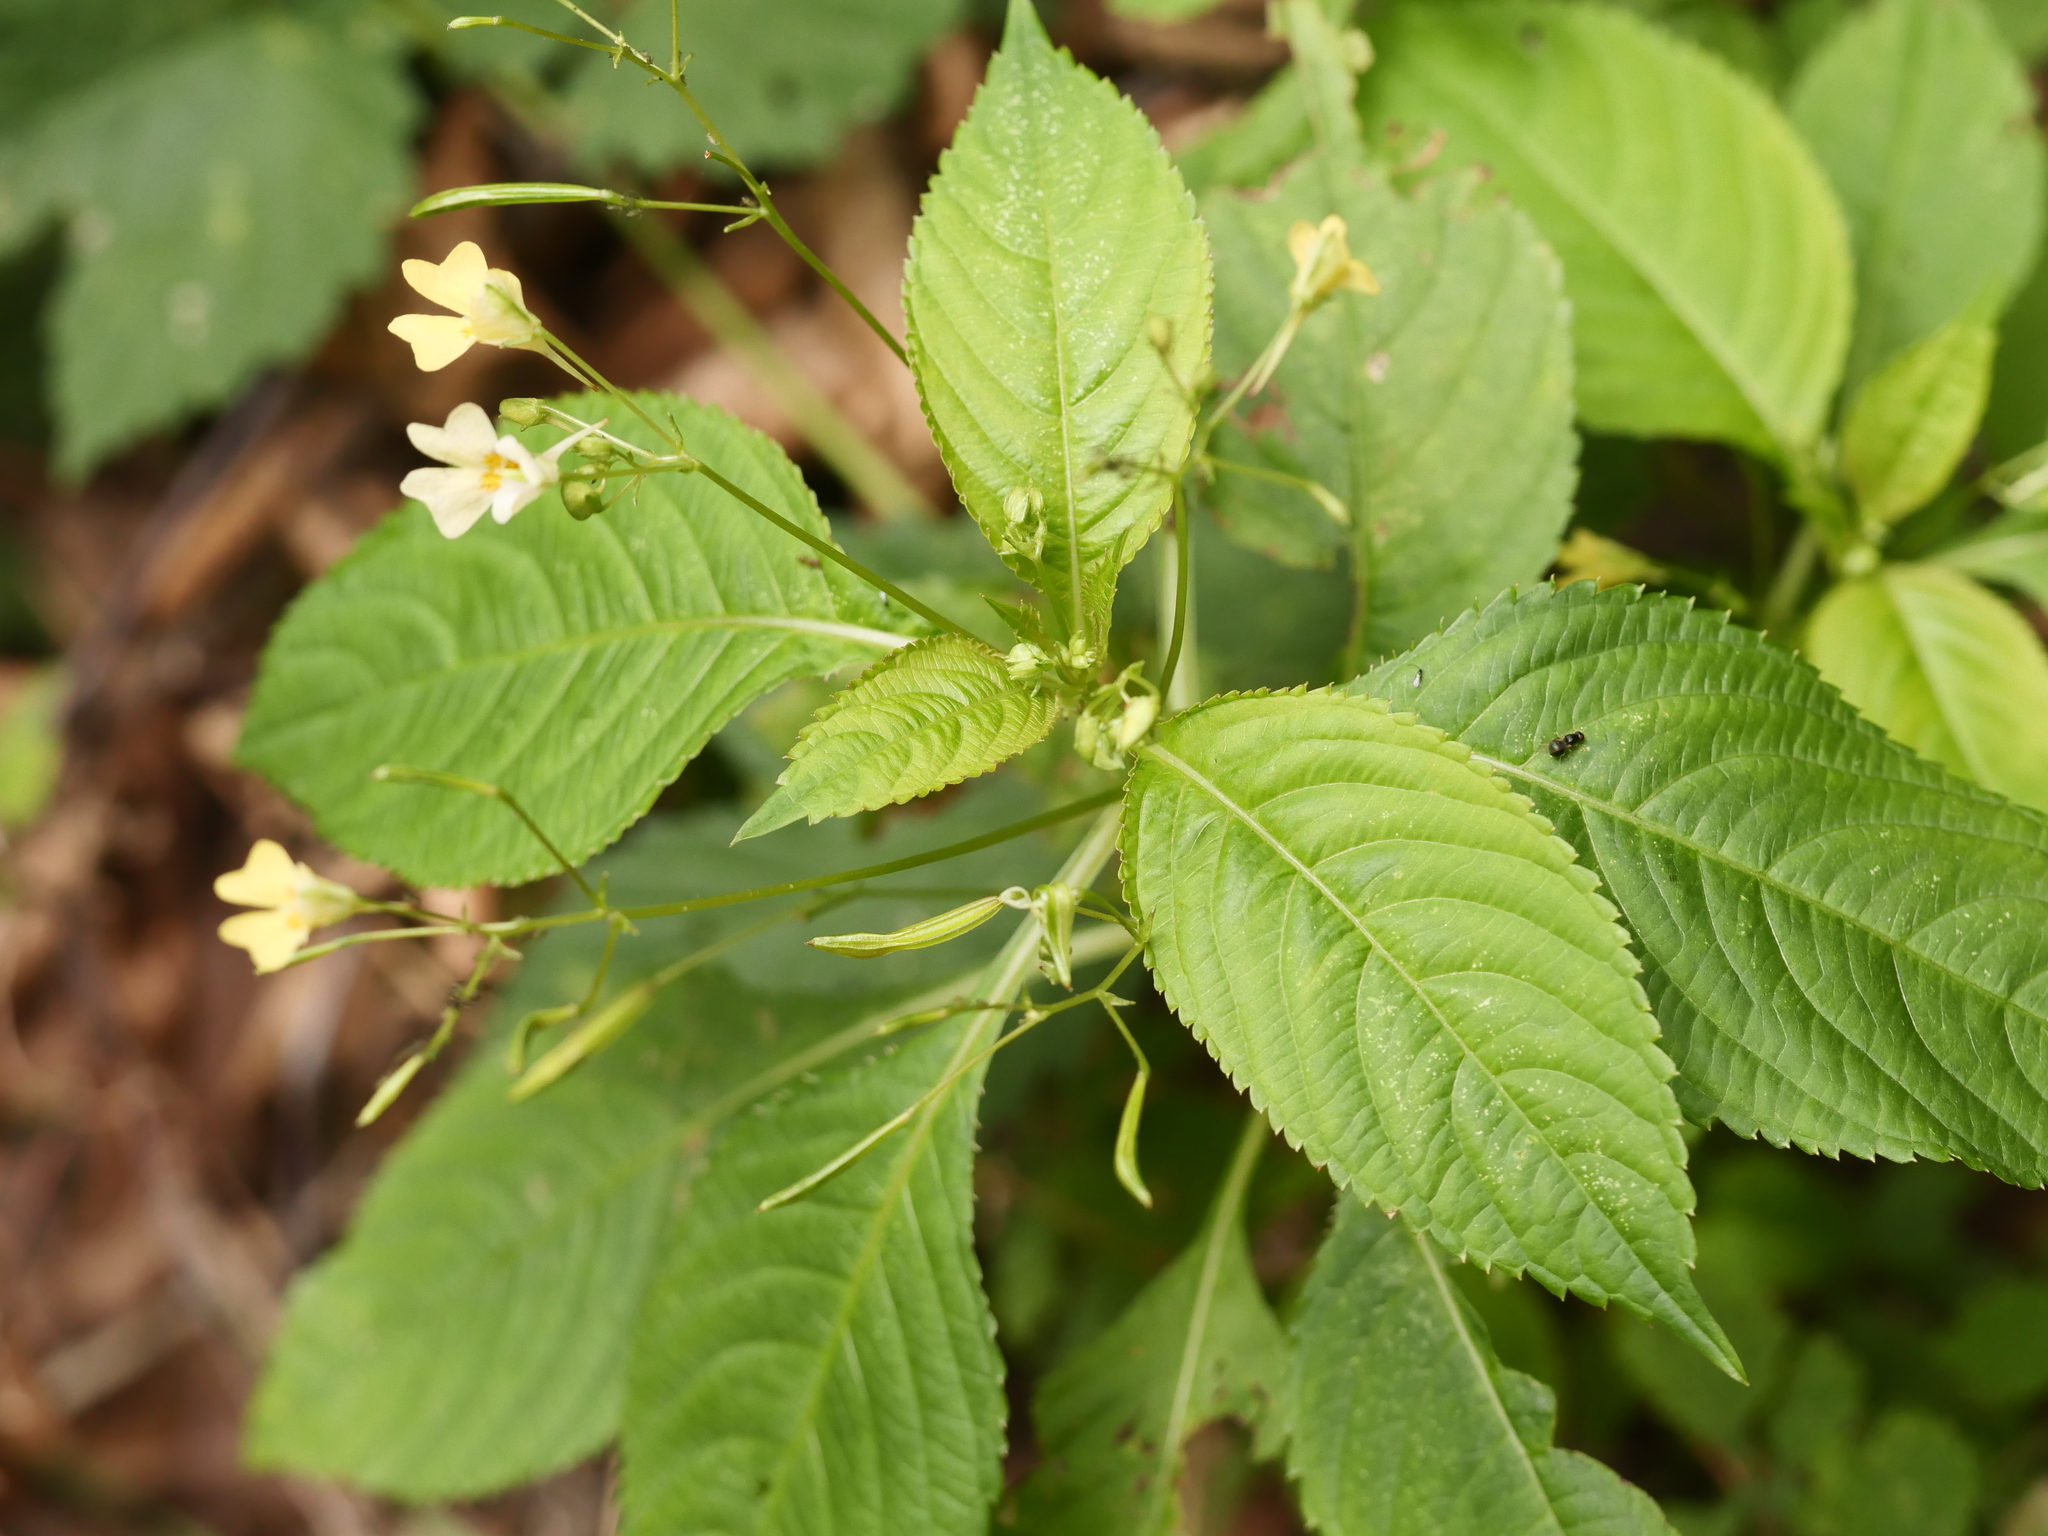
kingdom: Plantae
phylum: Tracheophyta
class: Magnoliopsida
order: Ericales
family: Balsaminaceae
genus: Impatiens
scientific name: Impatiens parviflora
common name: Small balsam
